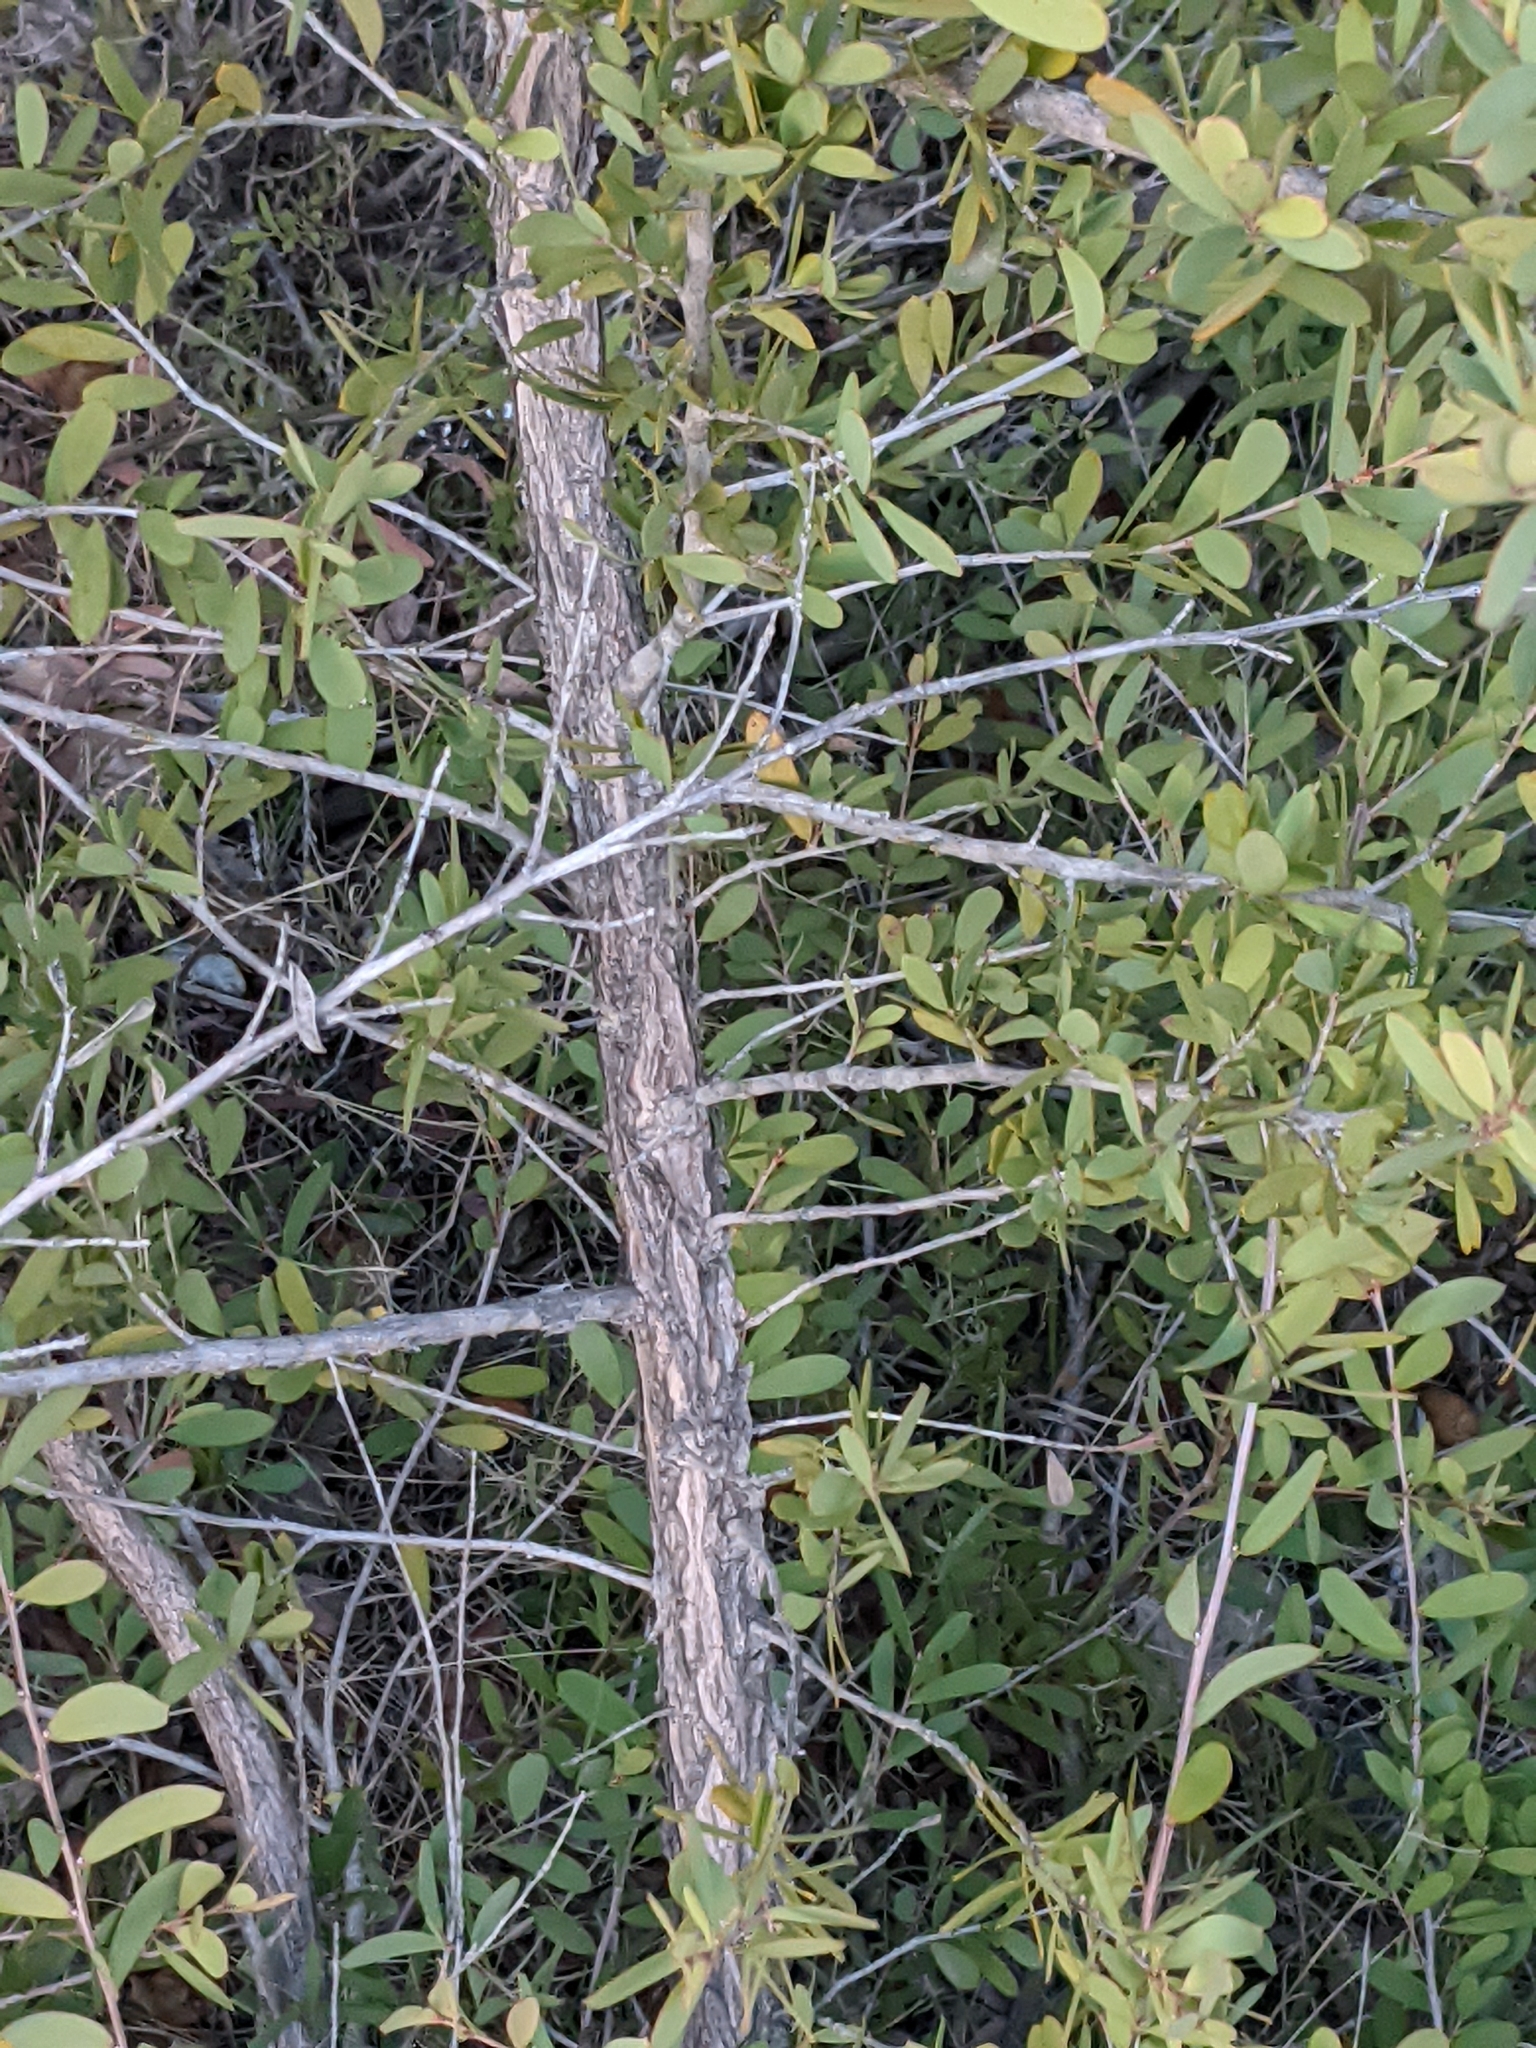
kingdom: Plantae
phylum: Tracheophyta
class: Magnoliopsida
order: Myrtales
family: Myrtaceae
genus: Leptospermum
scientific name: Leptospermum laevigatum
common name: Australian teatree
